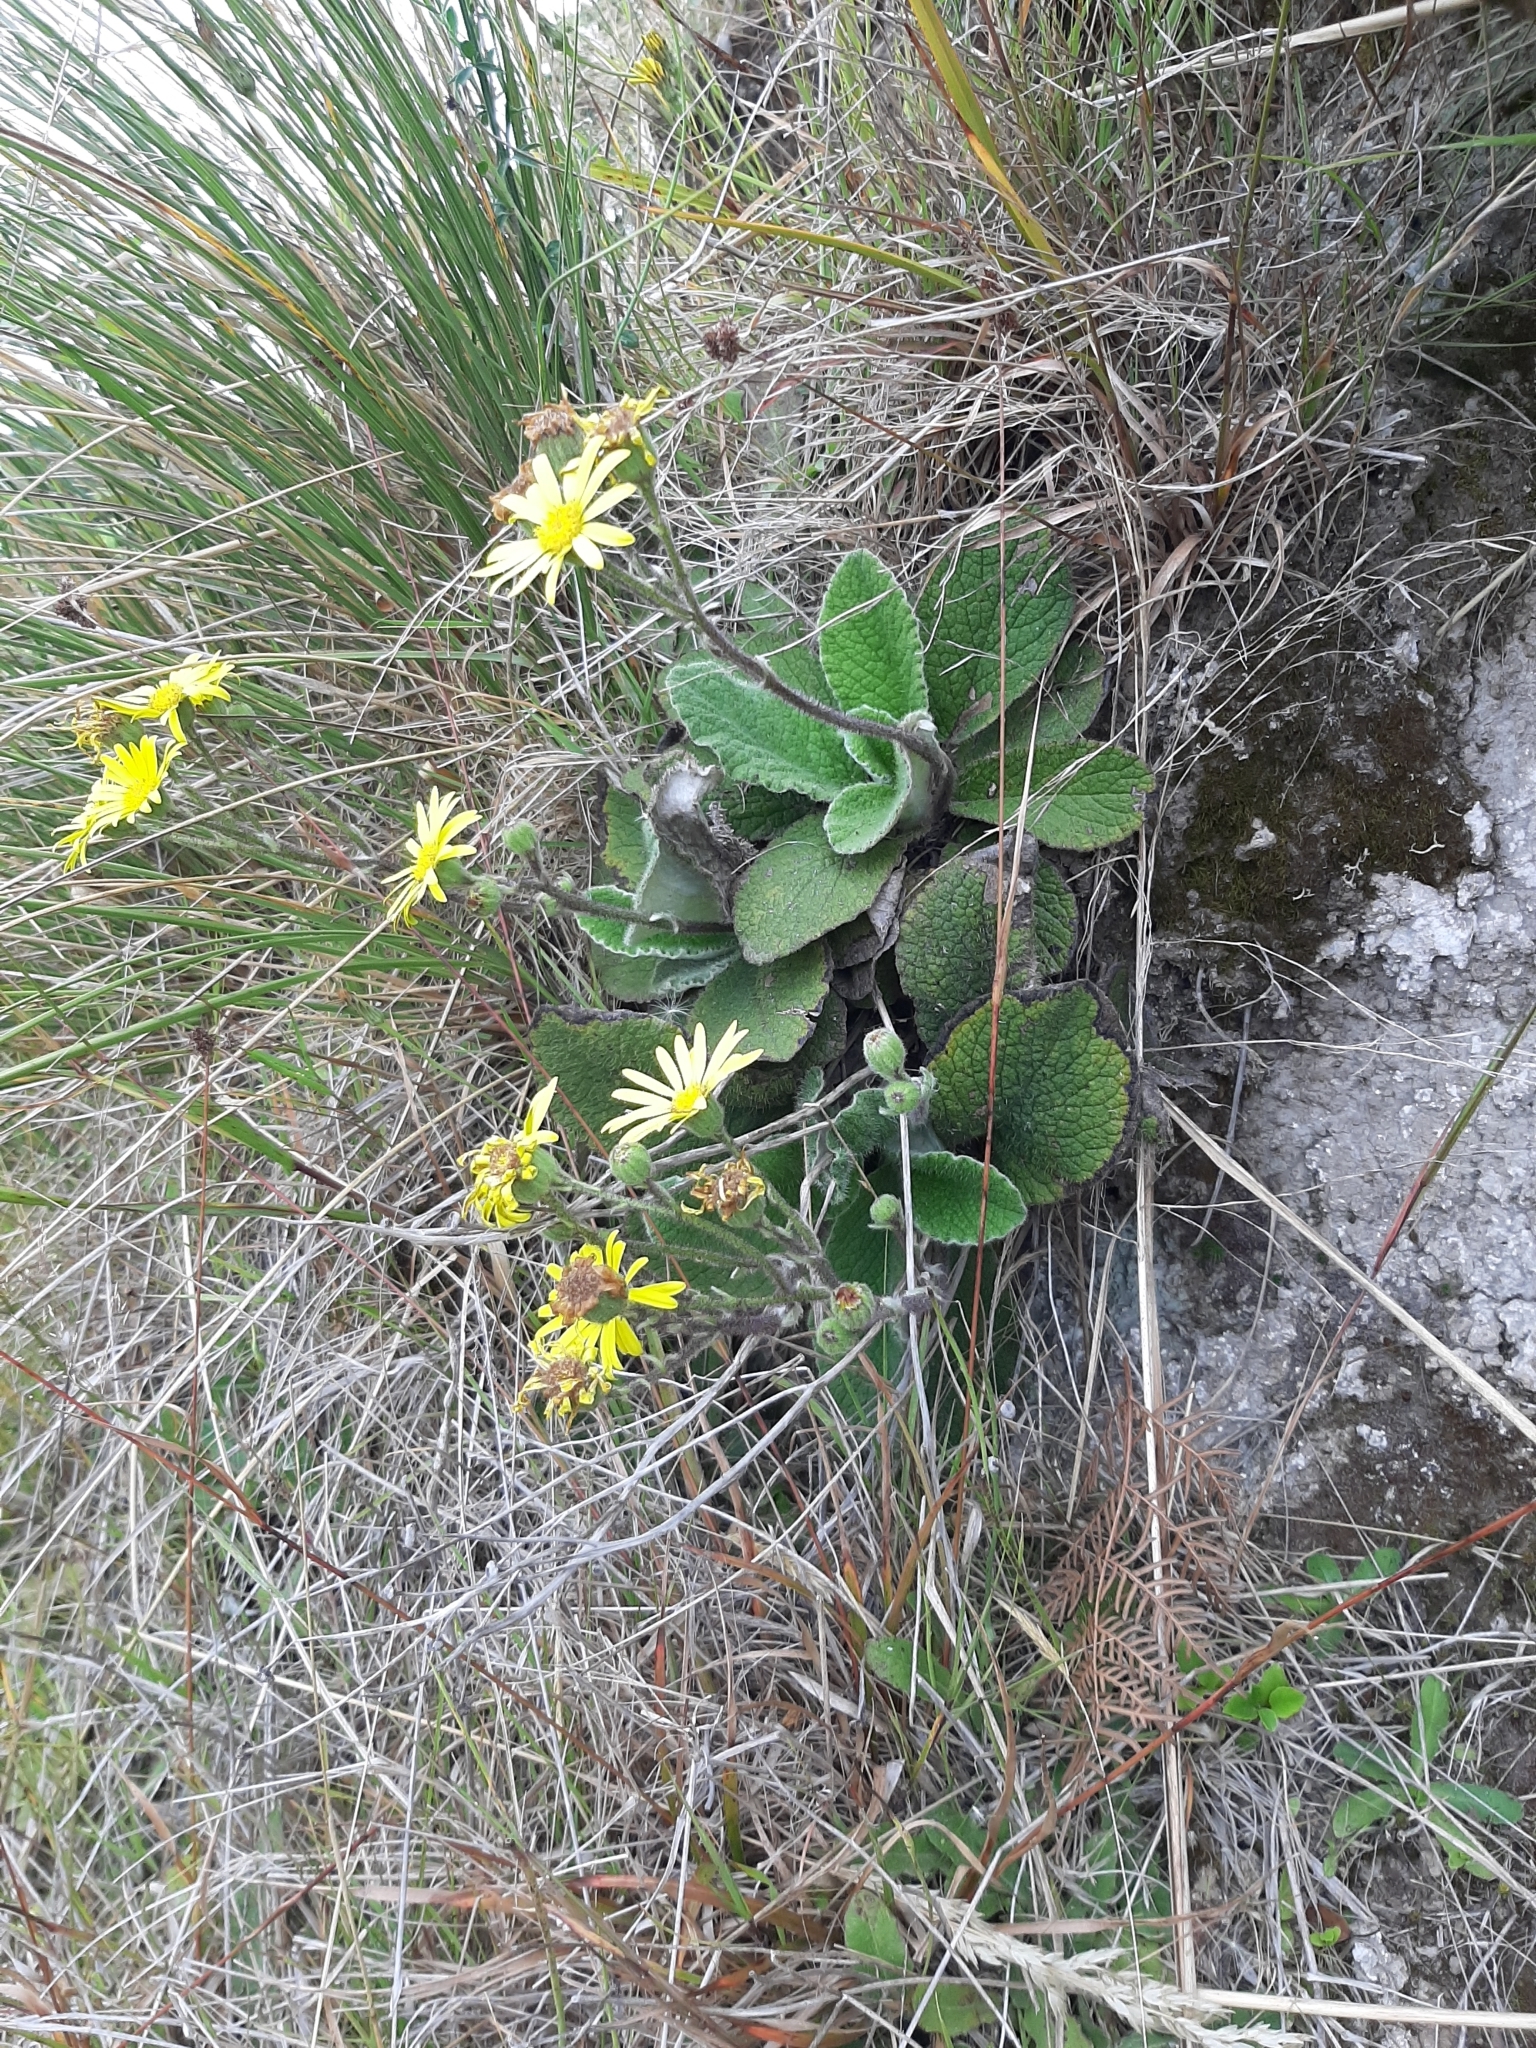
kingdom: Plantae
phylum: Tracheophyta
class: Magnoliopsida
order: Asterales
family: Asteraceae
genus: Brachyglottis
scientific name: Brachyglottis lagopus
